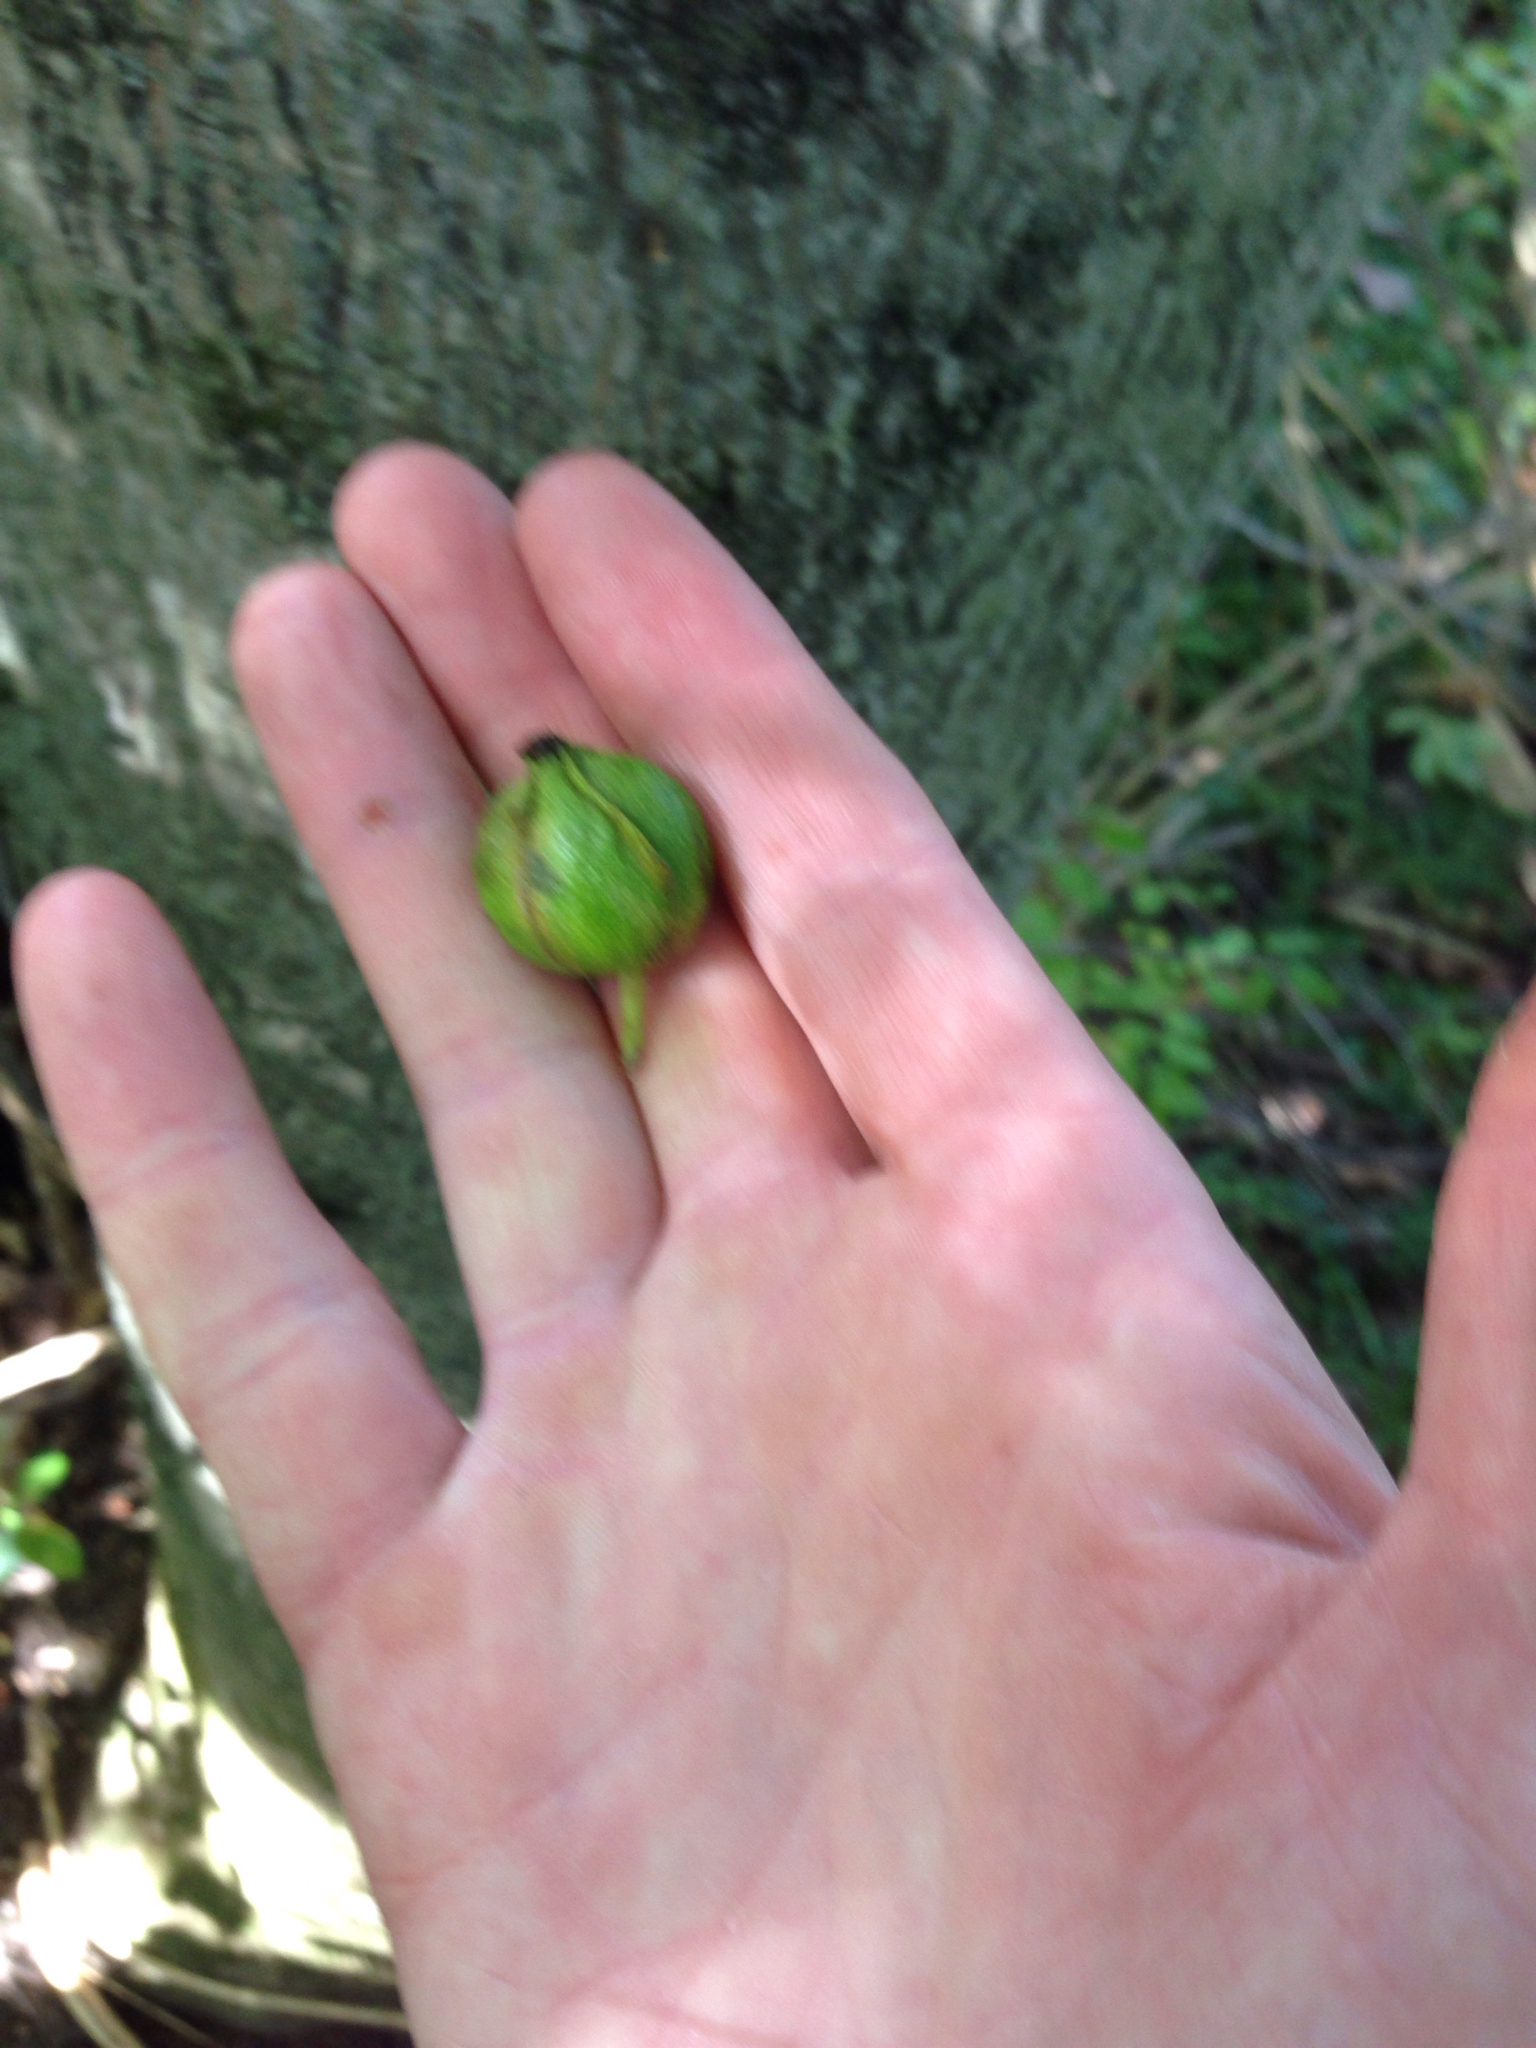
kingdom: Plantae
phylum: Tracheophyta
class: Magnoliopsida
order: Fagales
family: Juglandaceae
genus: Carya
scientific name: Carya cordiformis
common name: Bitternut hickory
